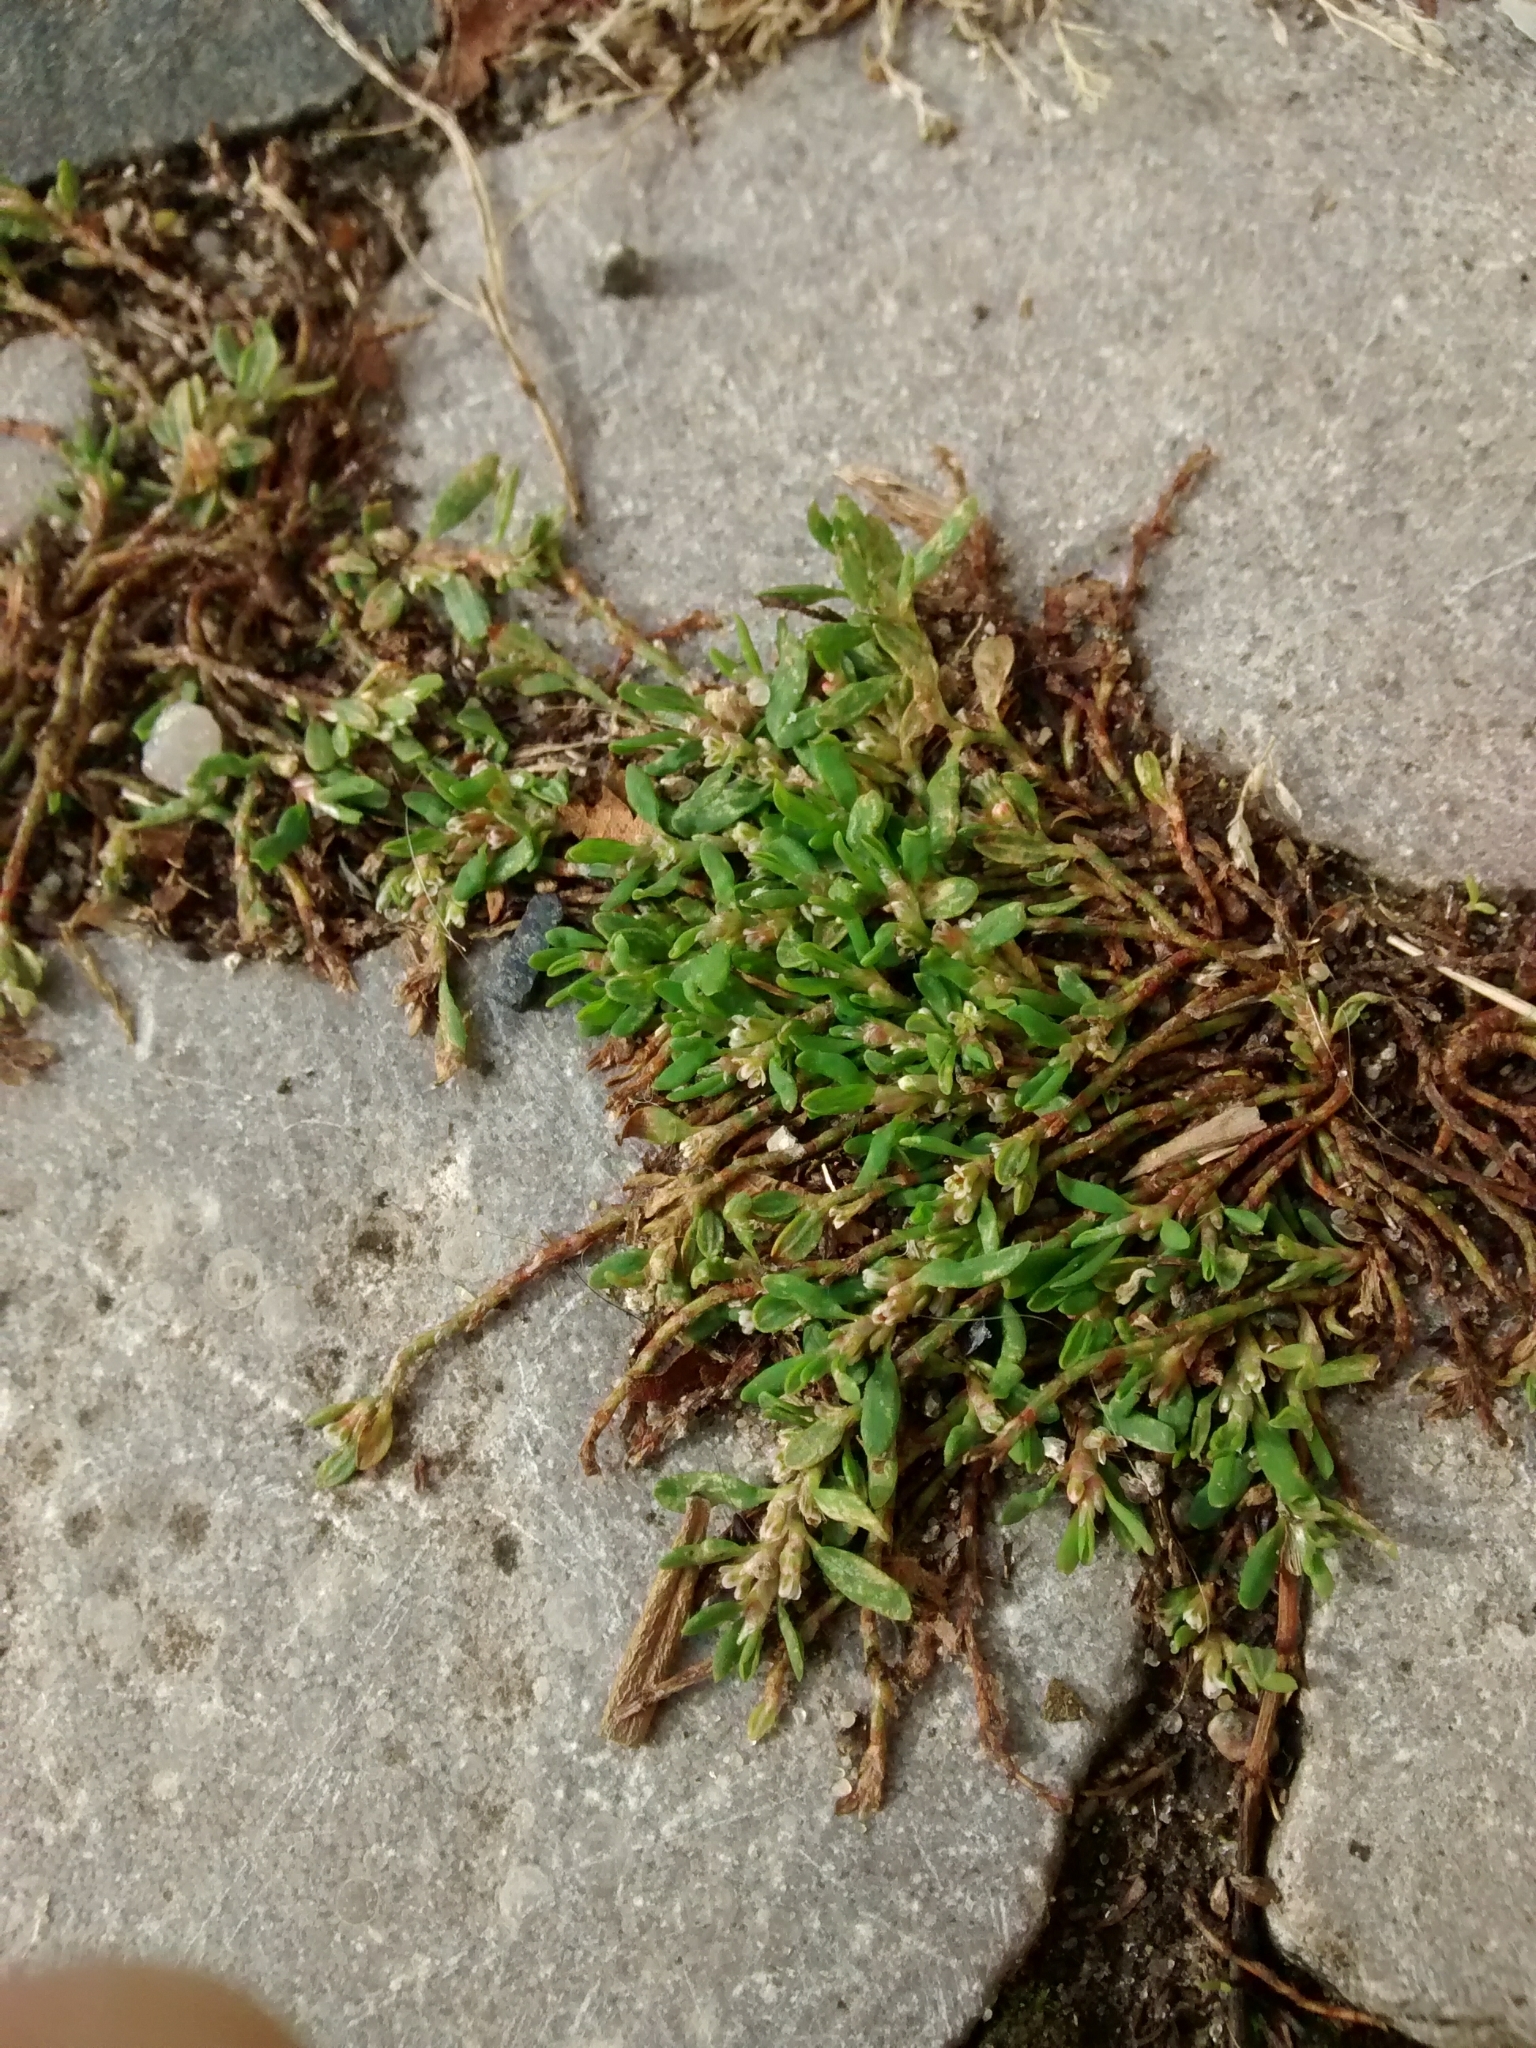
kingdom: Plantae
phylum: Tracheophyta
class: Magnoliopsida
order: Caryophyllales
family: Polygonaceae
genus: Polygonum
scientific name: Polygonum aviculare
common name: Prostrate knotweed
